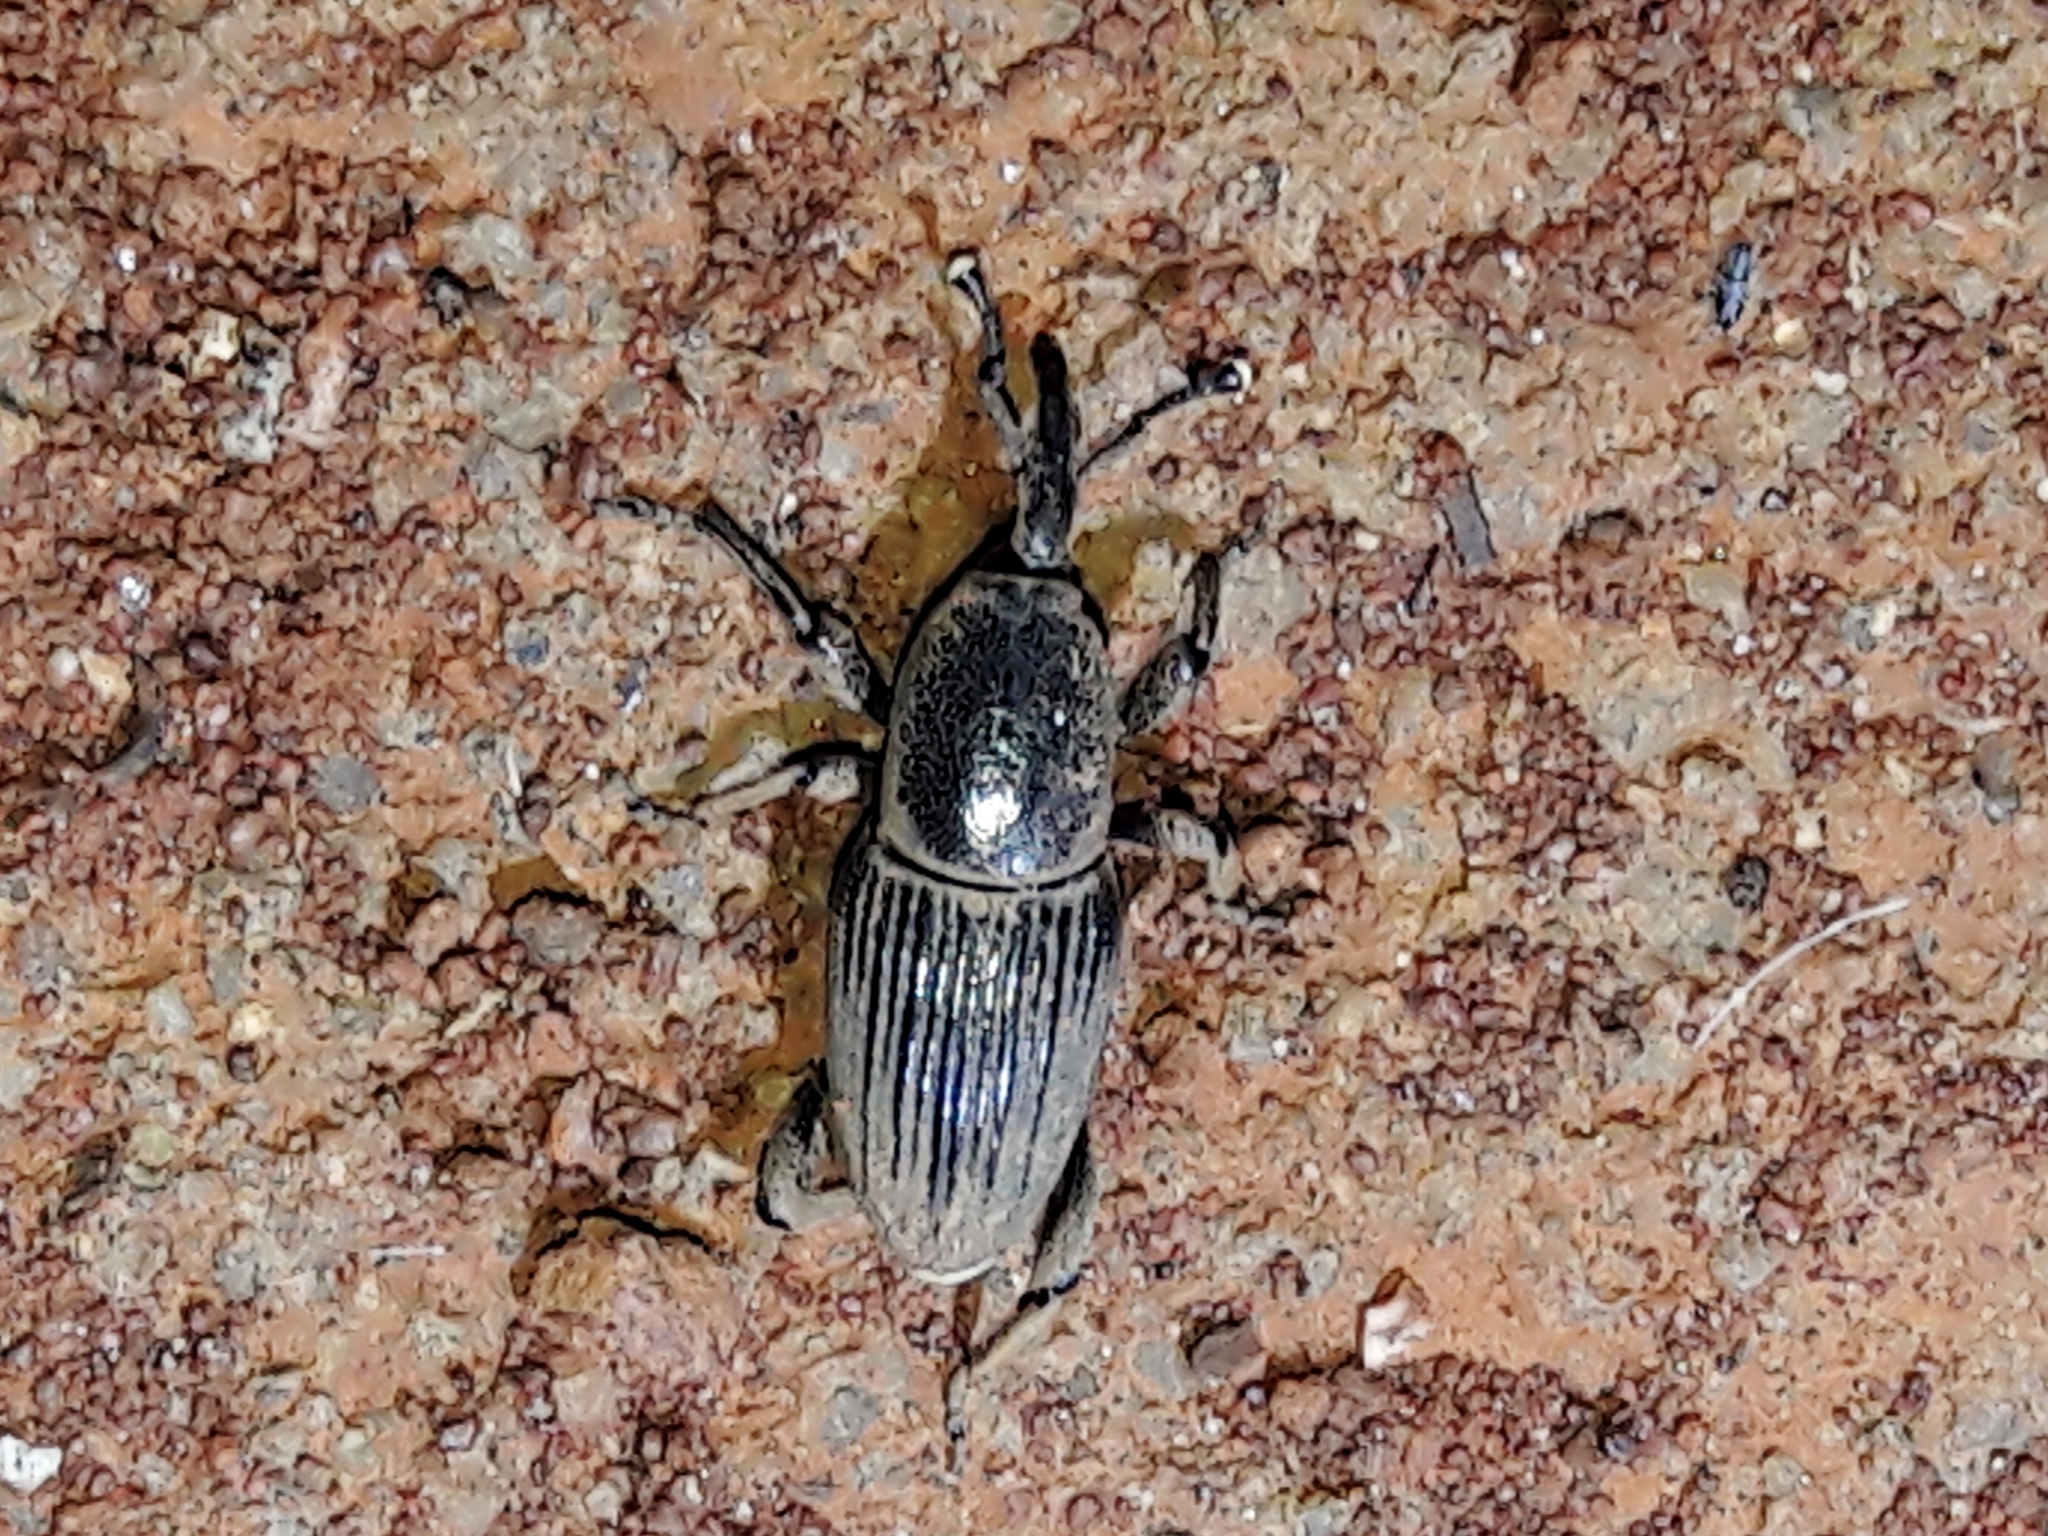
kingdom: Animalia
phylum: Arthropoda
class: Insecta
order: Coleoptera
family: Dryophthoridae
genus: Cosmopolites
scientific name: Cosmopolites sordidus
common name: Palm weevil
